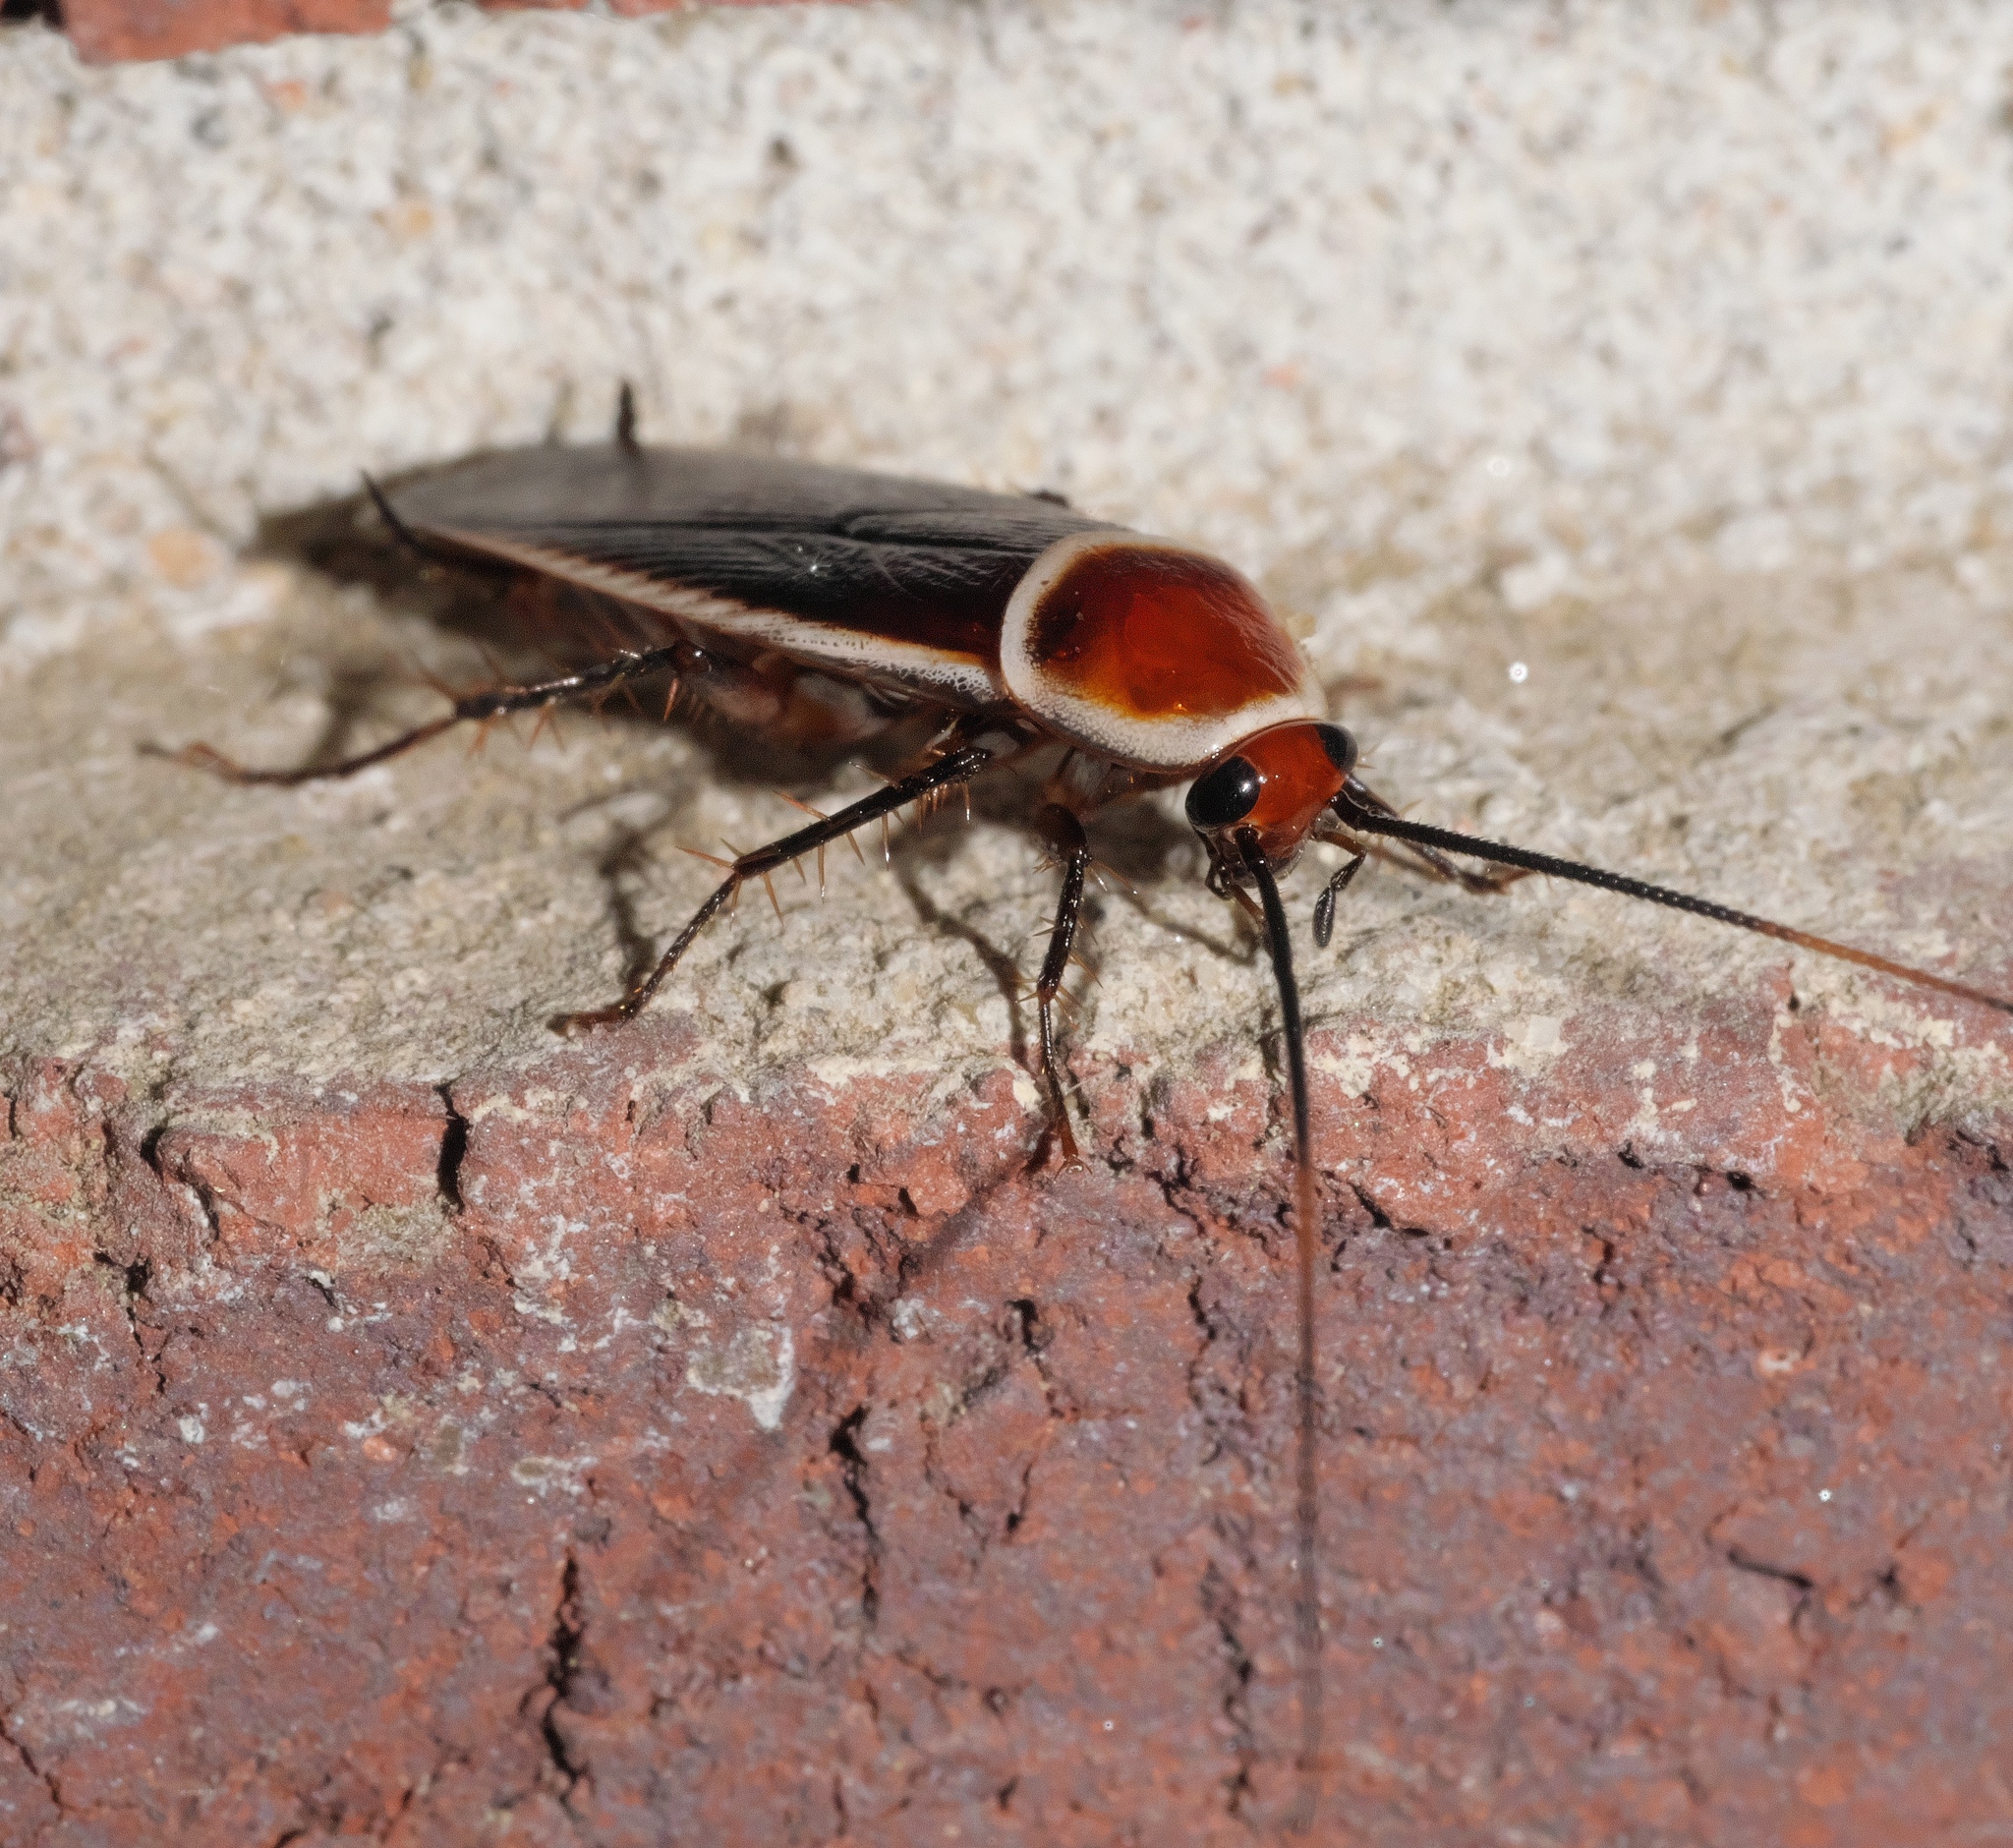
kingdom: Animalia
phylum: Arthropoda
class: Insecta
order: Blattodea
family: Ectobiidae
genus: Pseudomops
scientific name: Pseudomops septentrionalis
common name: Pale-bordered field cockroach
